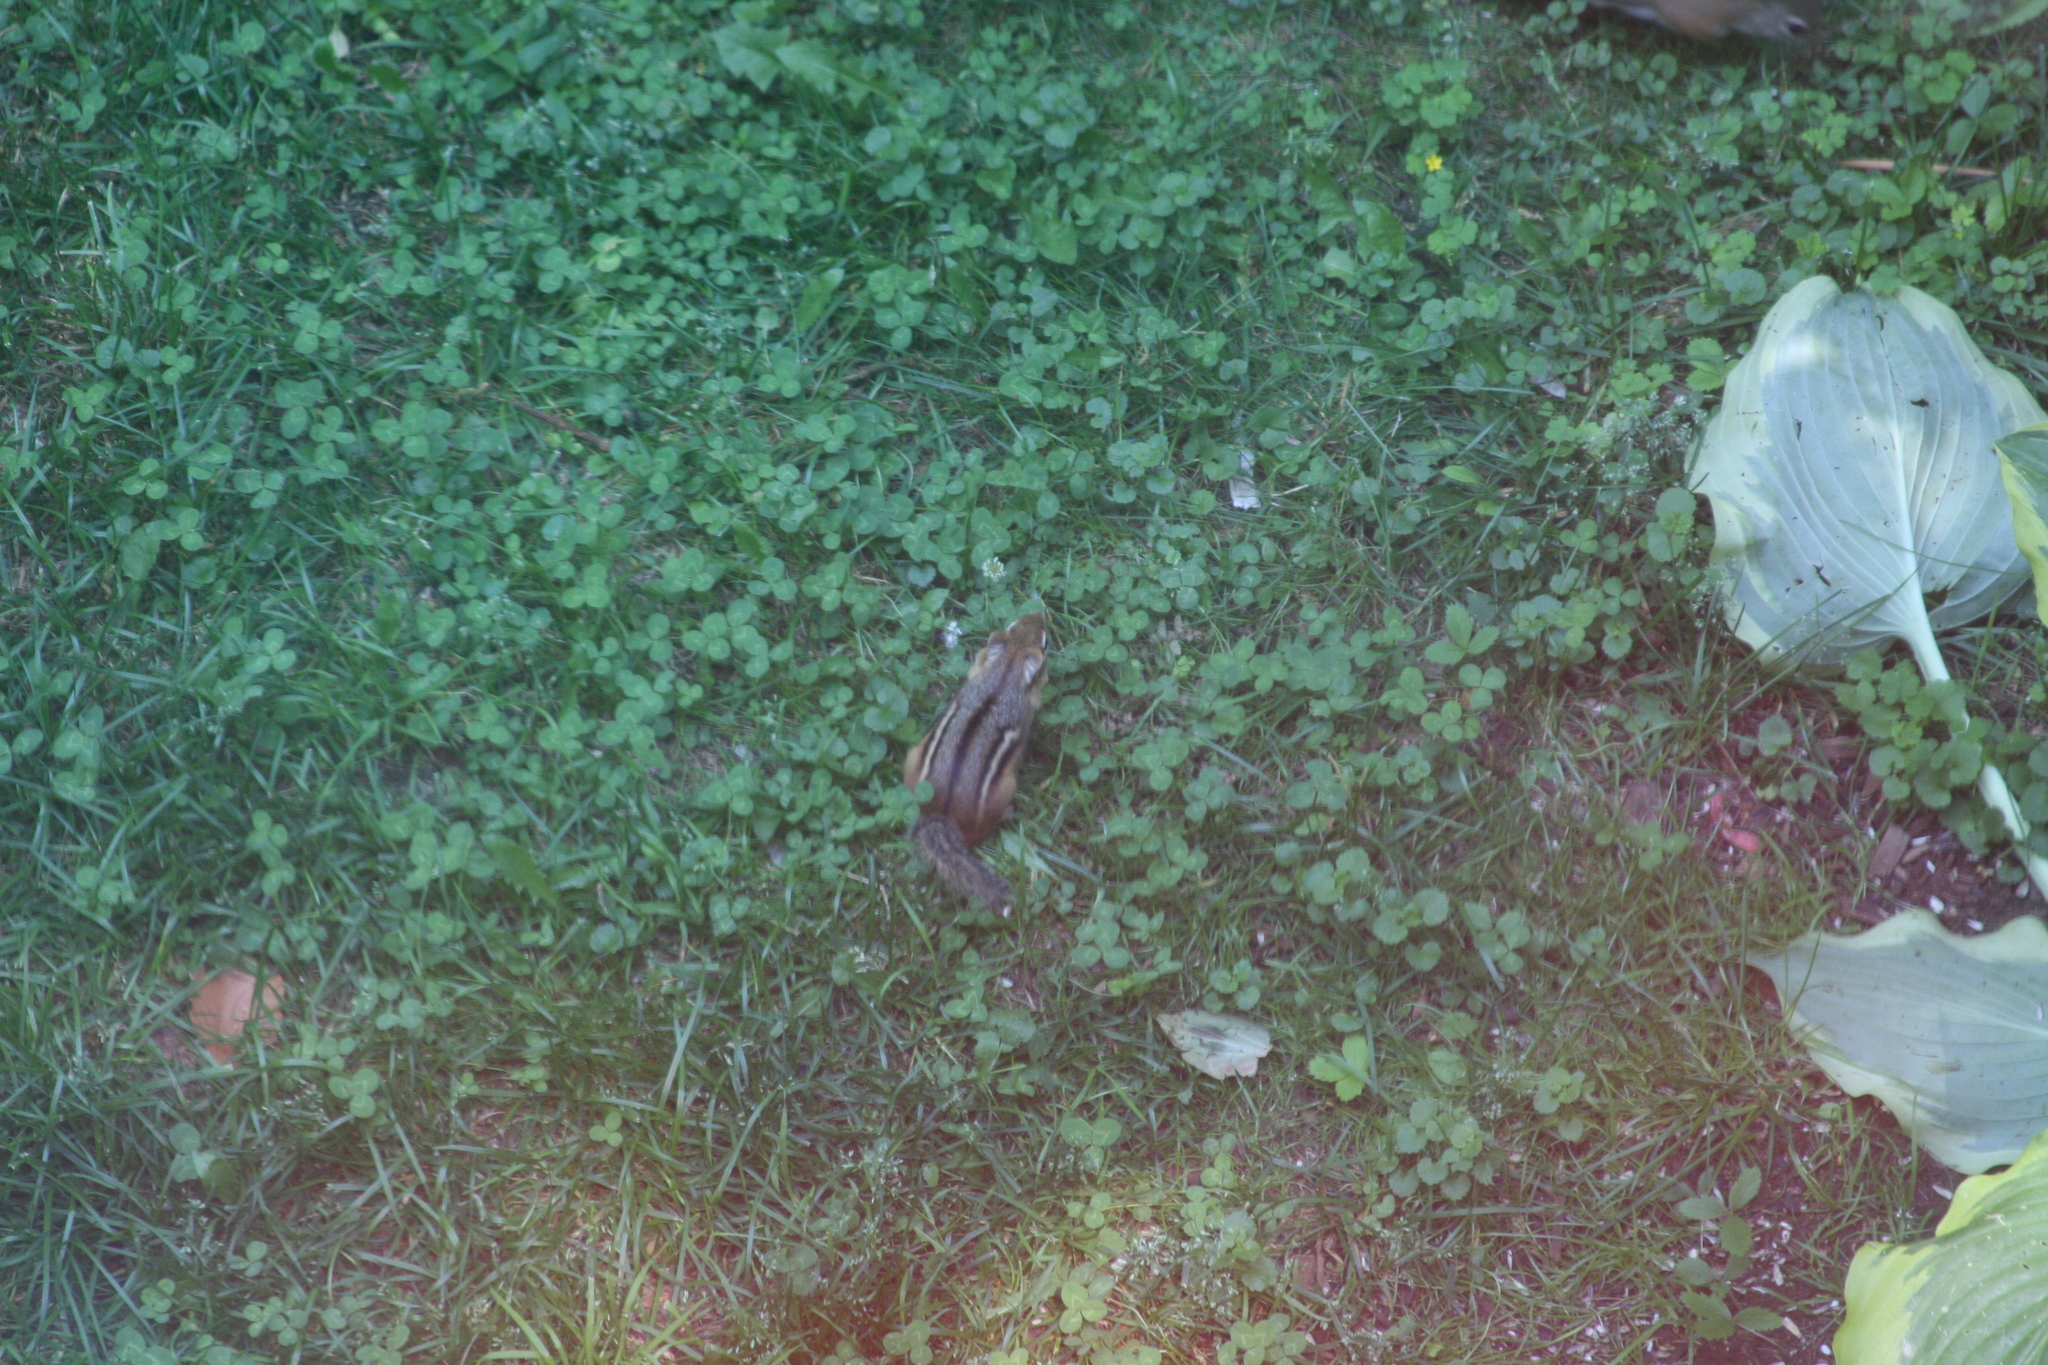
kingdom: Animalia
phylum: Chordata
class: Mammalia
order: Rodentia
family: Sciuridae
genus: Tamias
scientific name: Tamias striatus
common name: Eastern chipmunk
